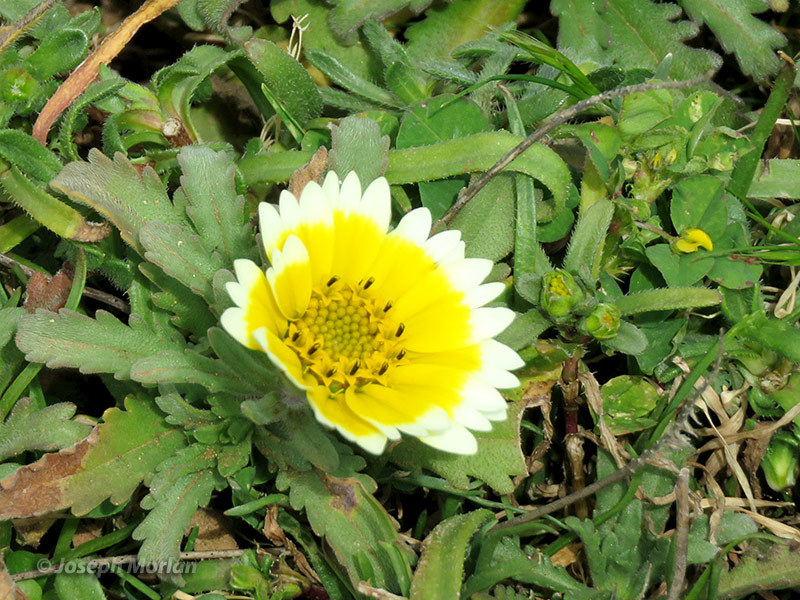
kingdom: Plantae
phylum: Tracheophyta
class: Magnoliopsida
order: Asterales
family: Asteraceae
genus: Layia
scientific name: Layia platyglossa
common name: Tidy-tips
